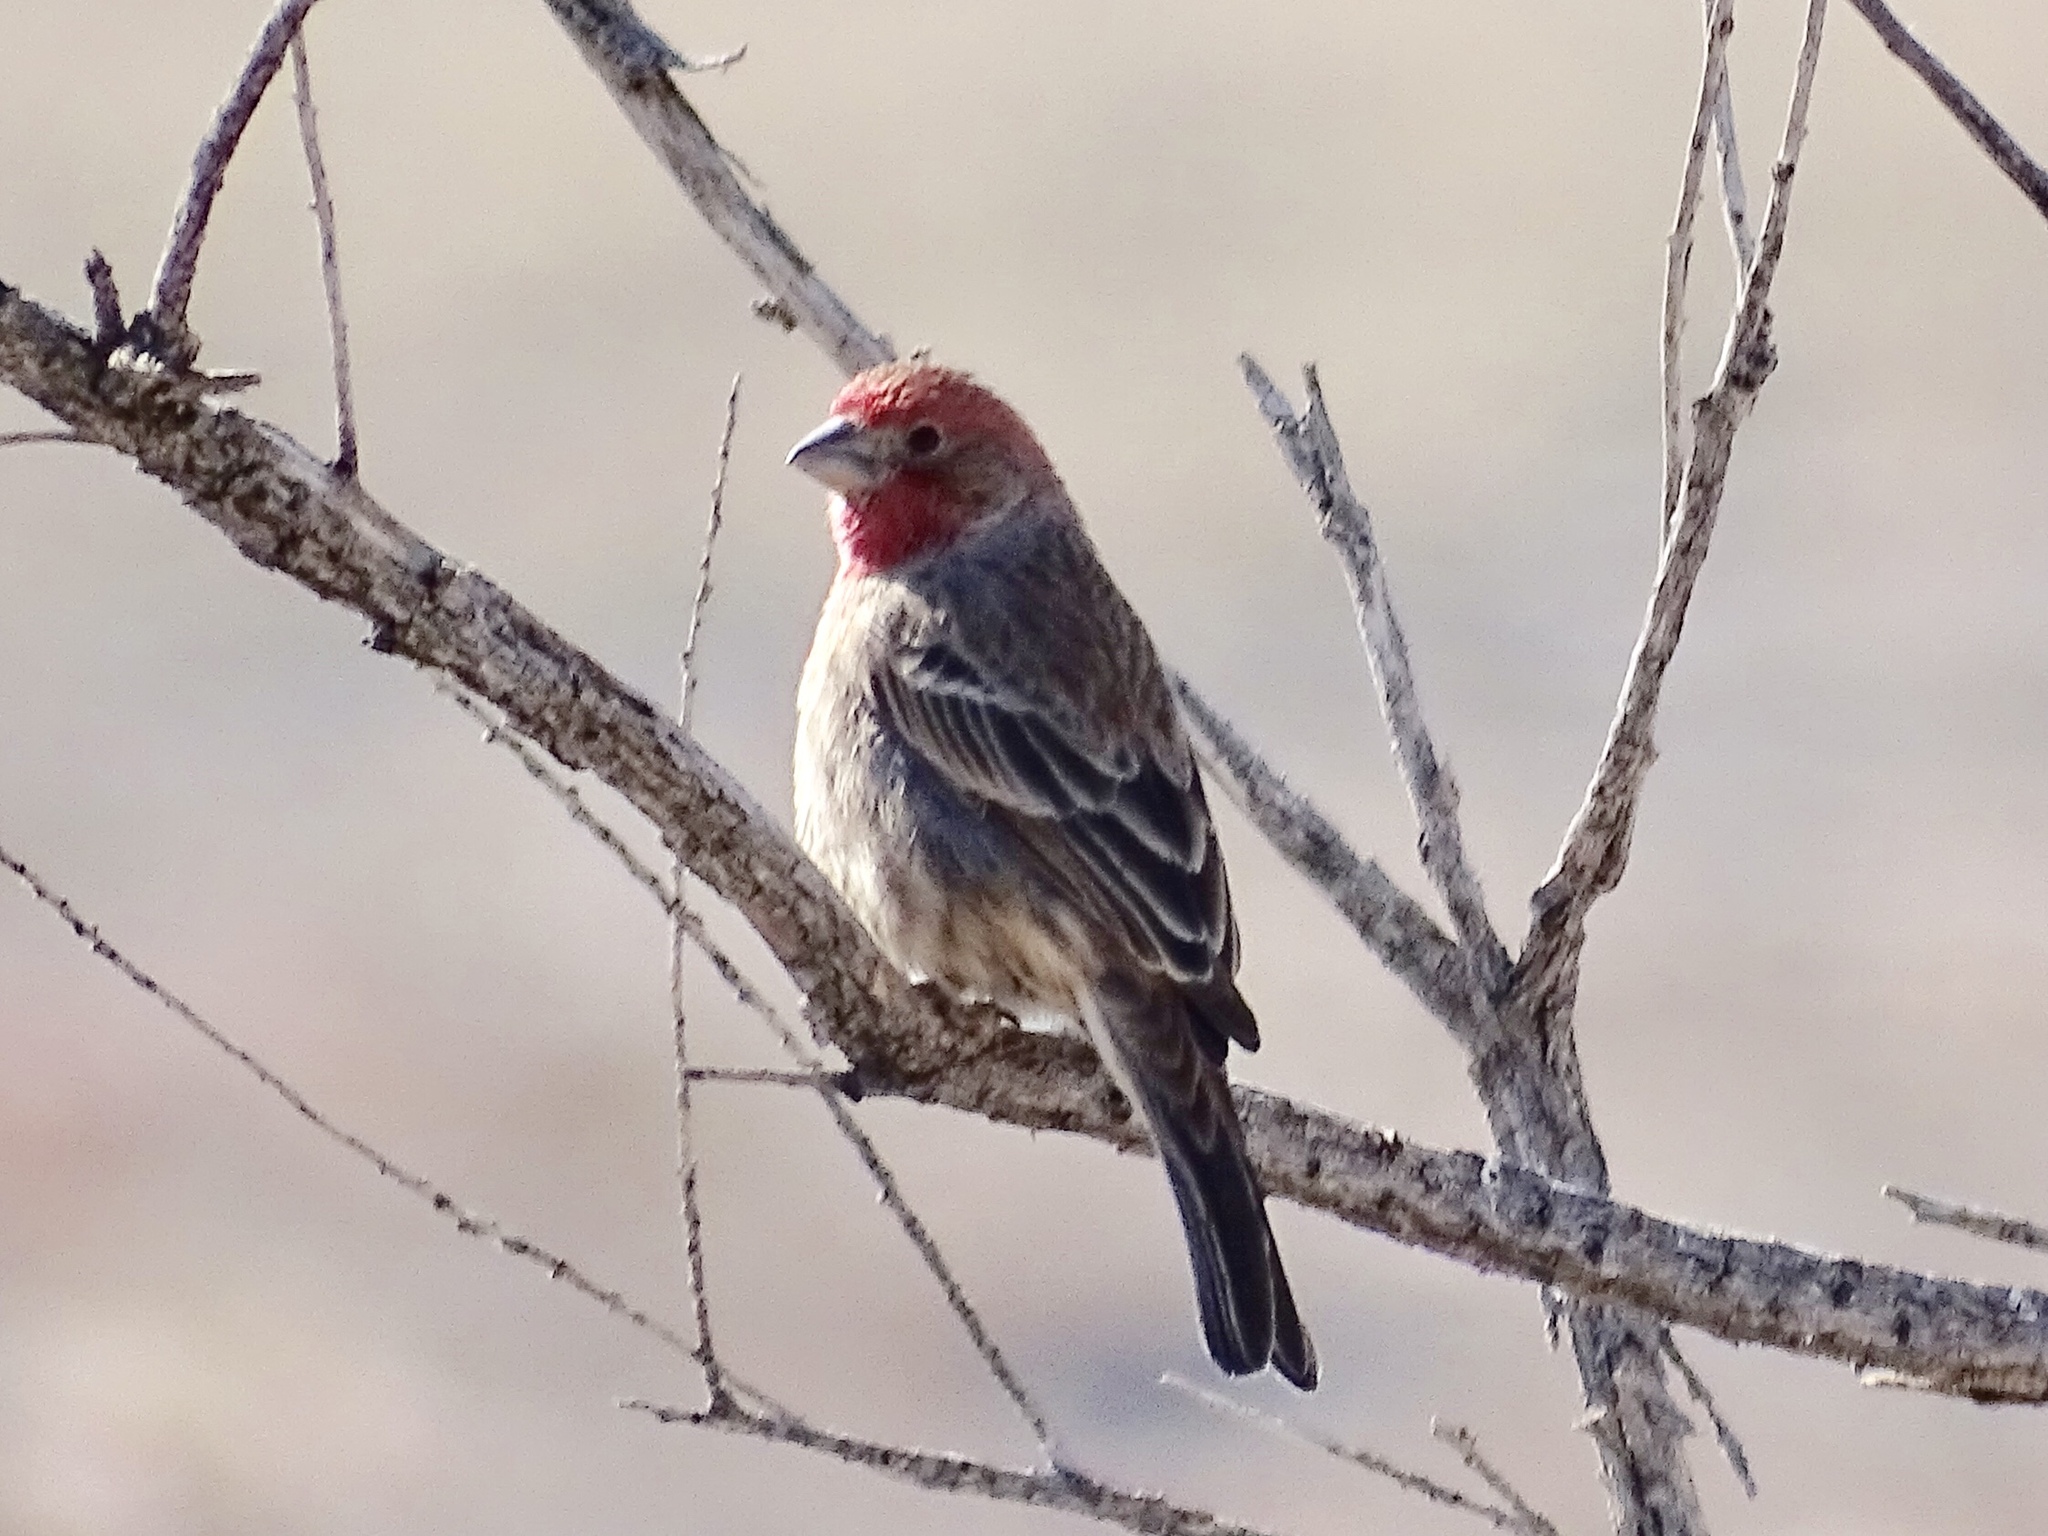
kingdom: Animalia
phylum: Chordata
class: Aves
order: Passeriformes
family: Fringillidae
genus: Haemorhous
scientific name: Haemorhous mexicanus
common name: House finch
